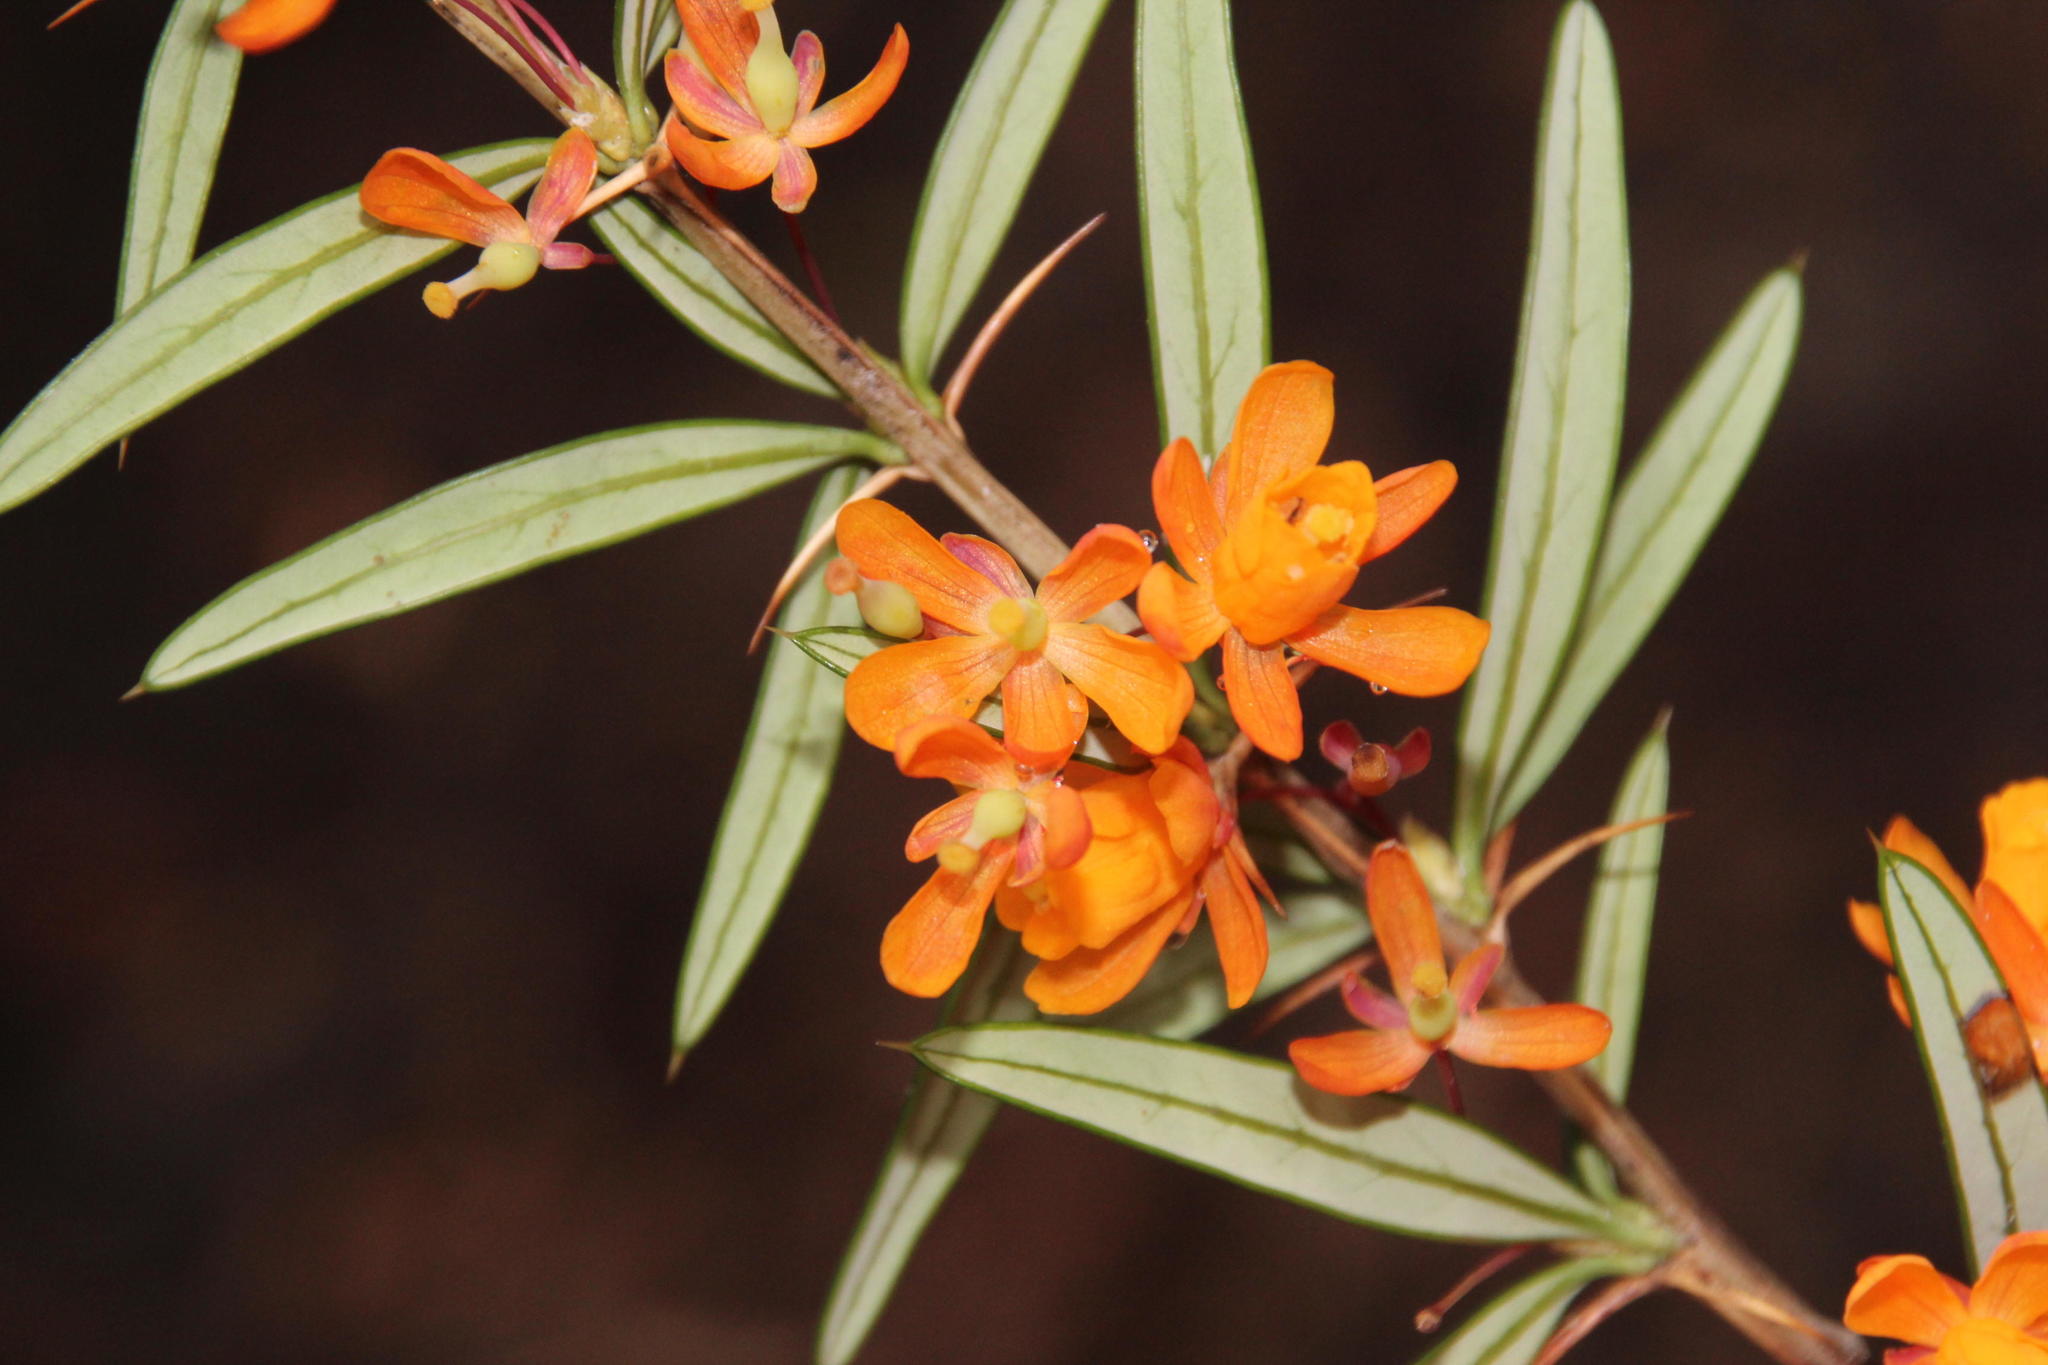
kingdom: Plantae
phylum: Tracheophyta
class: Magnoliopsida
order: Ranunculales
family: Berberidaceae
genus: Berberis
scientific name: Berberis trigona
